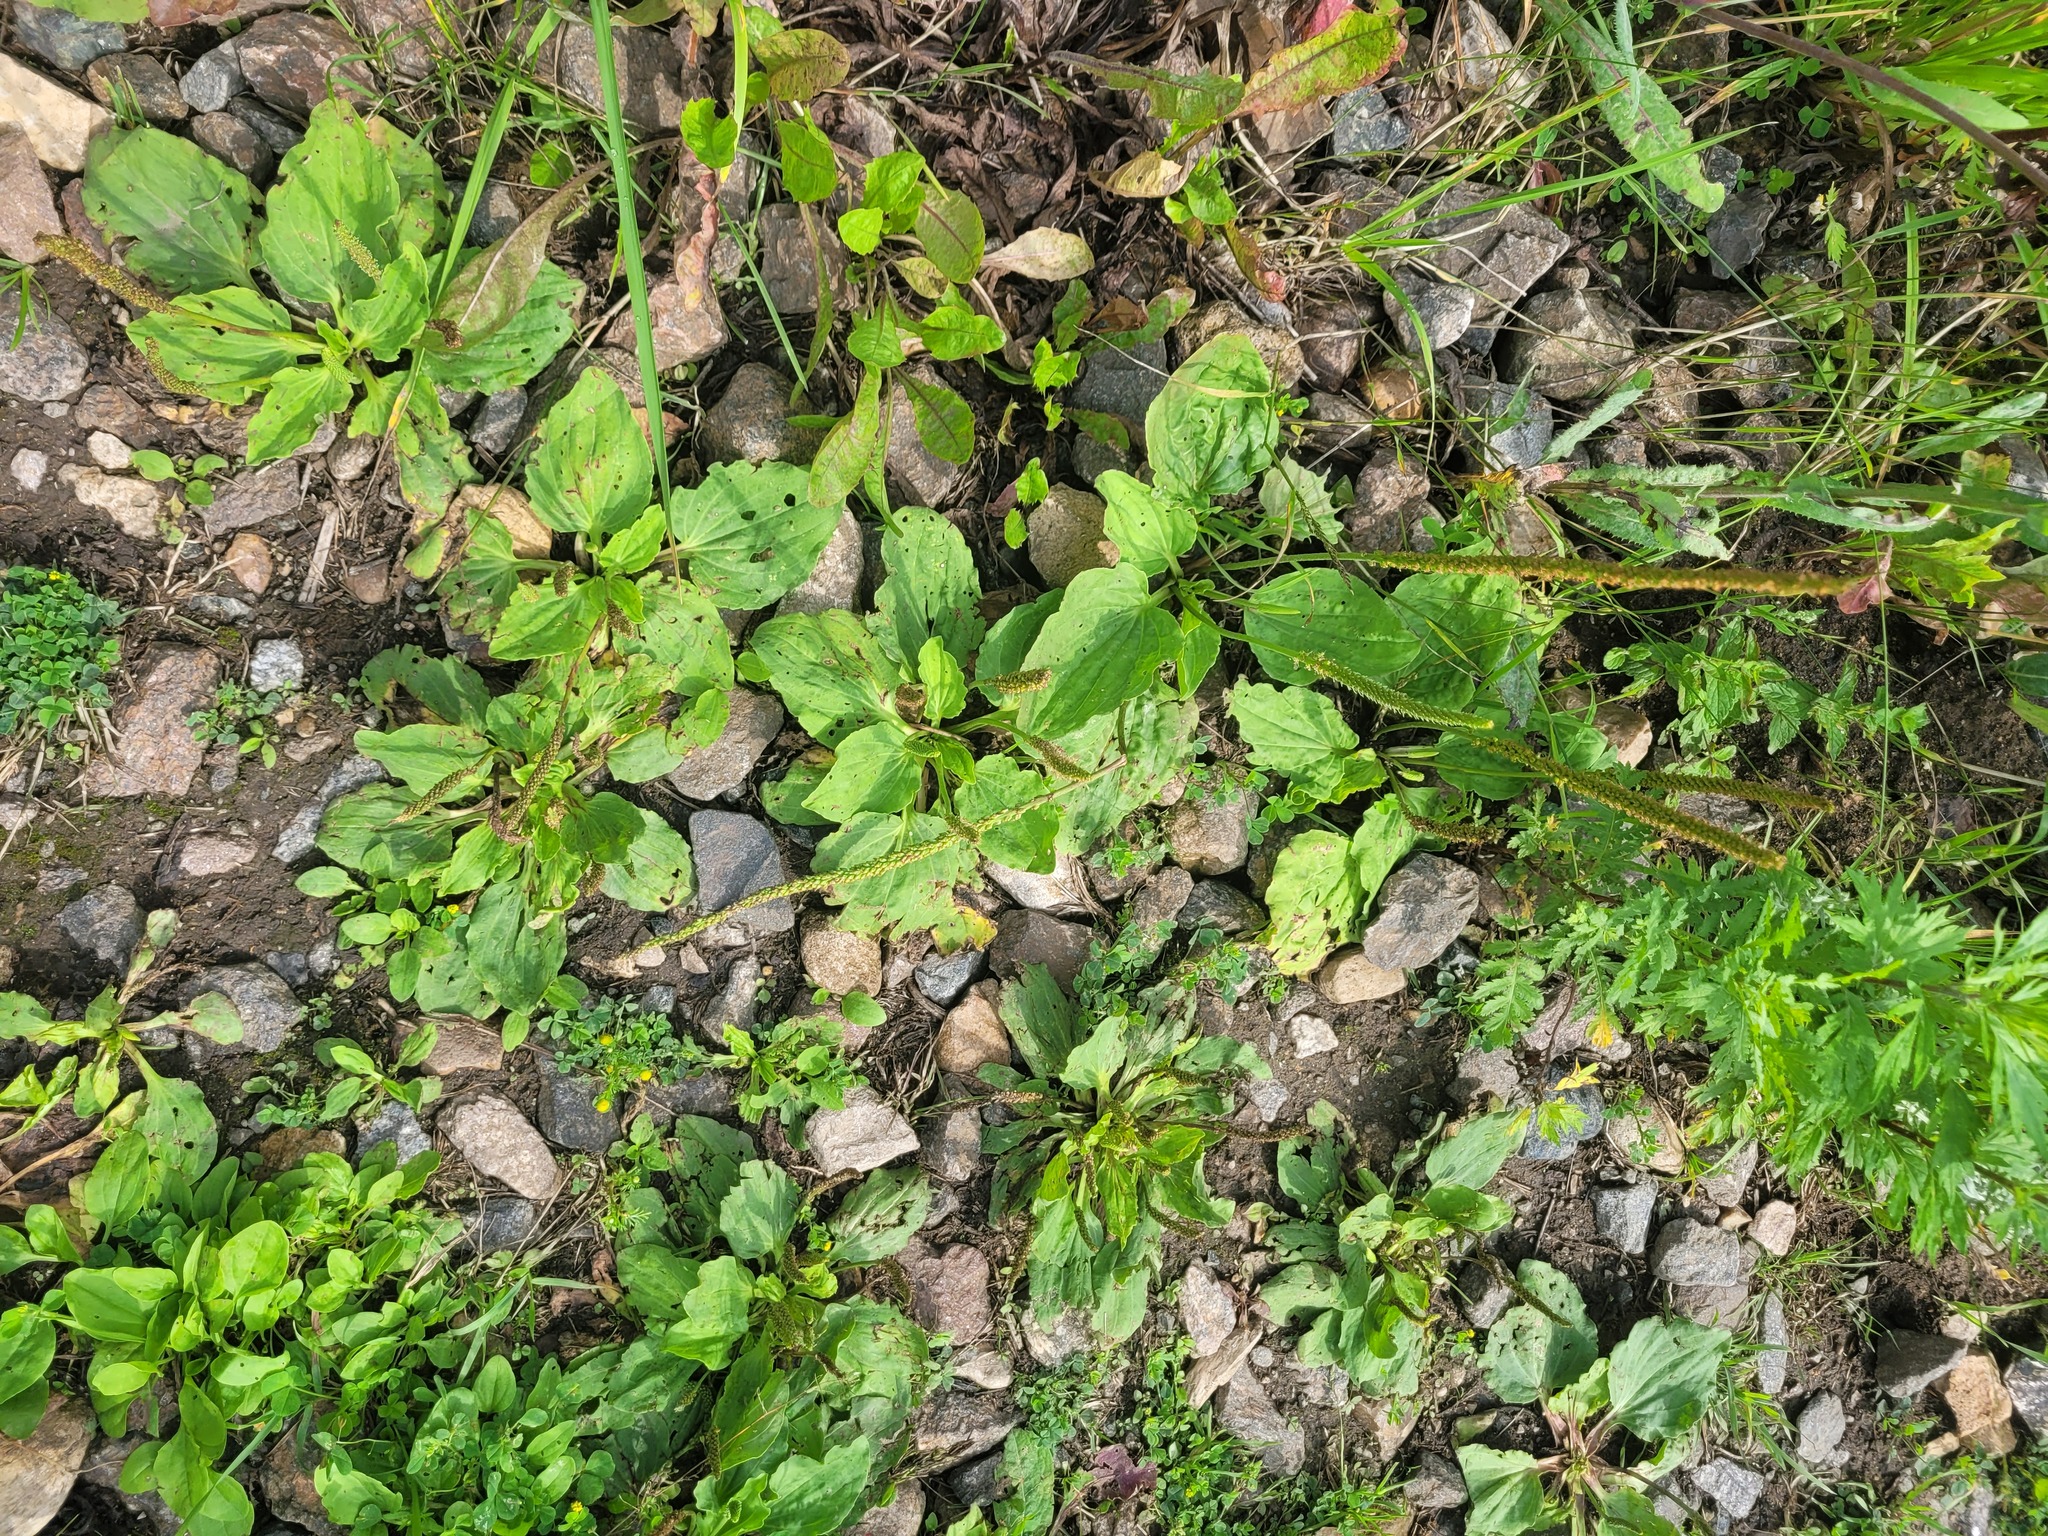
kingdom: Plantae
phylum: Tracheophyta
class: Magnoliopsida
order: Lamiales
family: Plantaginaceae
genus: Plantago
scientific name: Plantago major
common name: Common plantain
